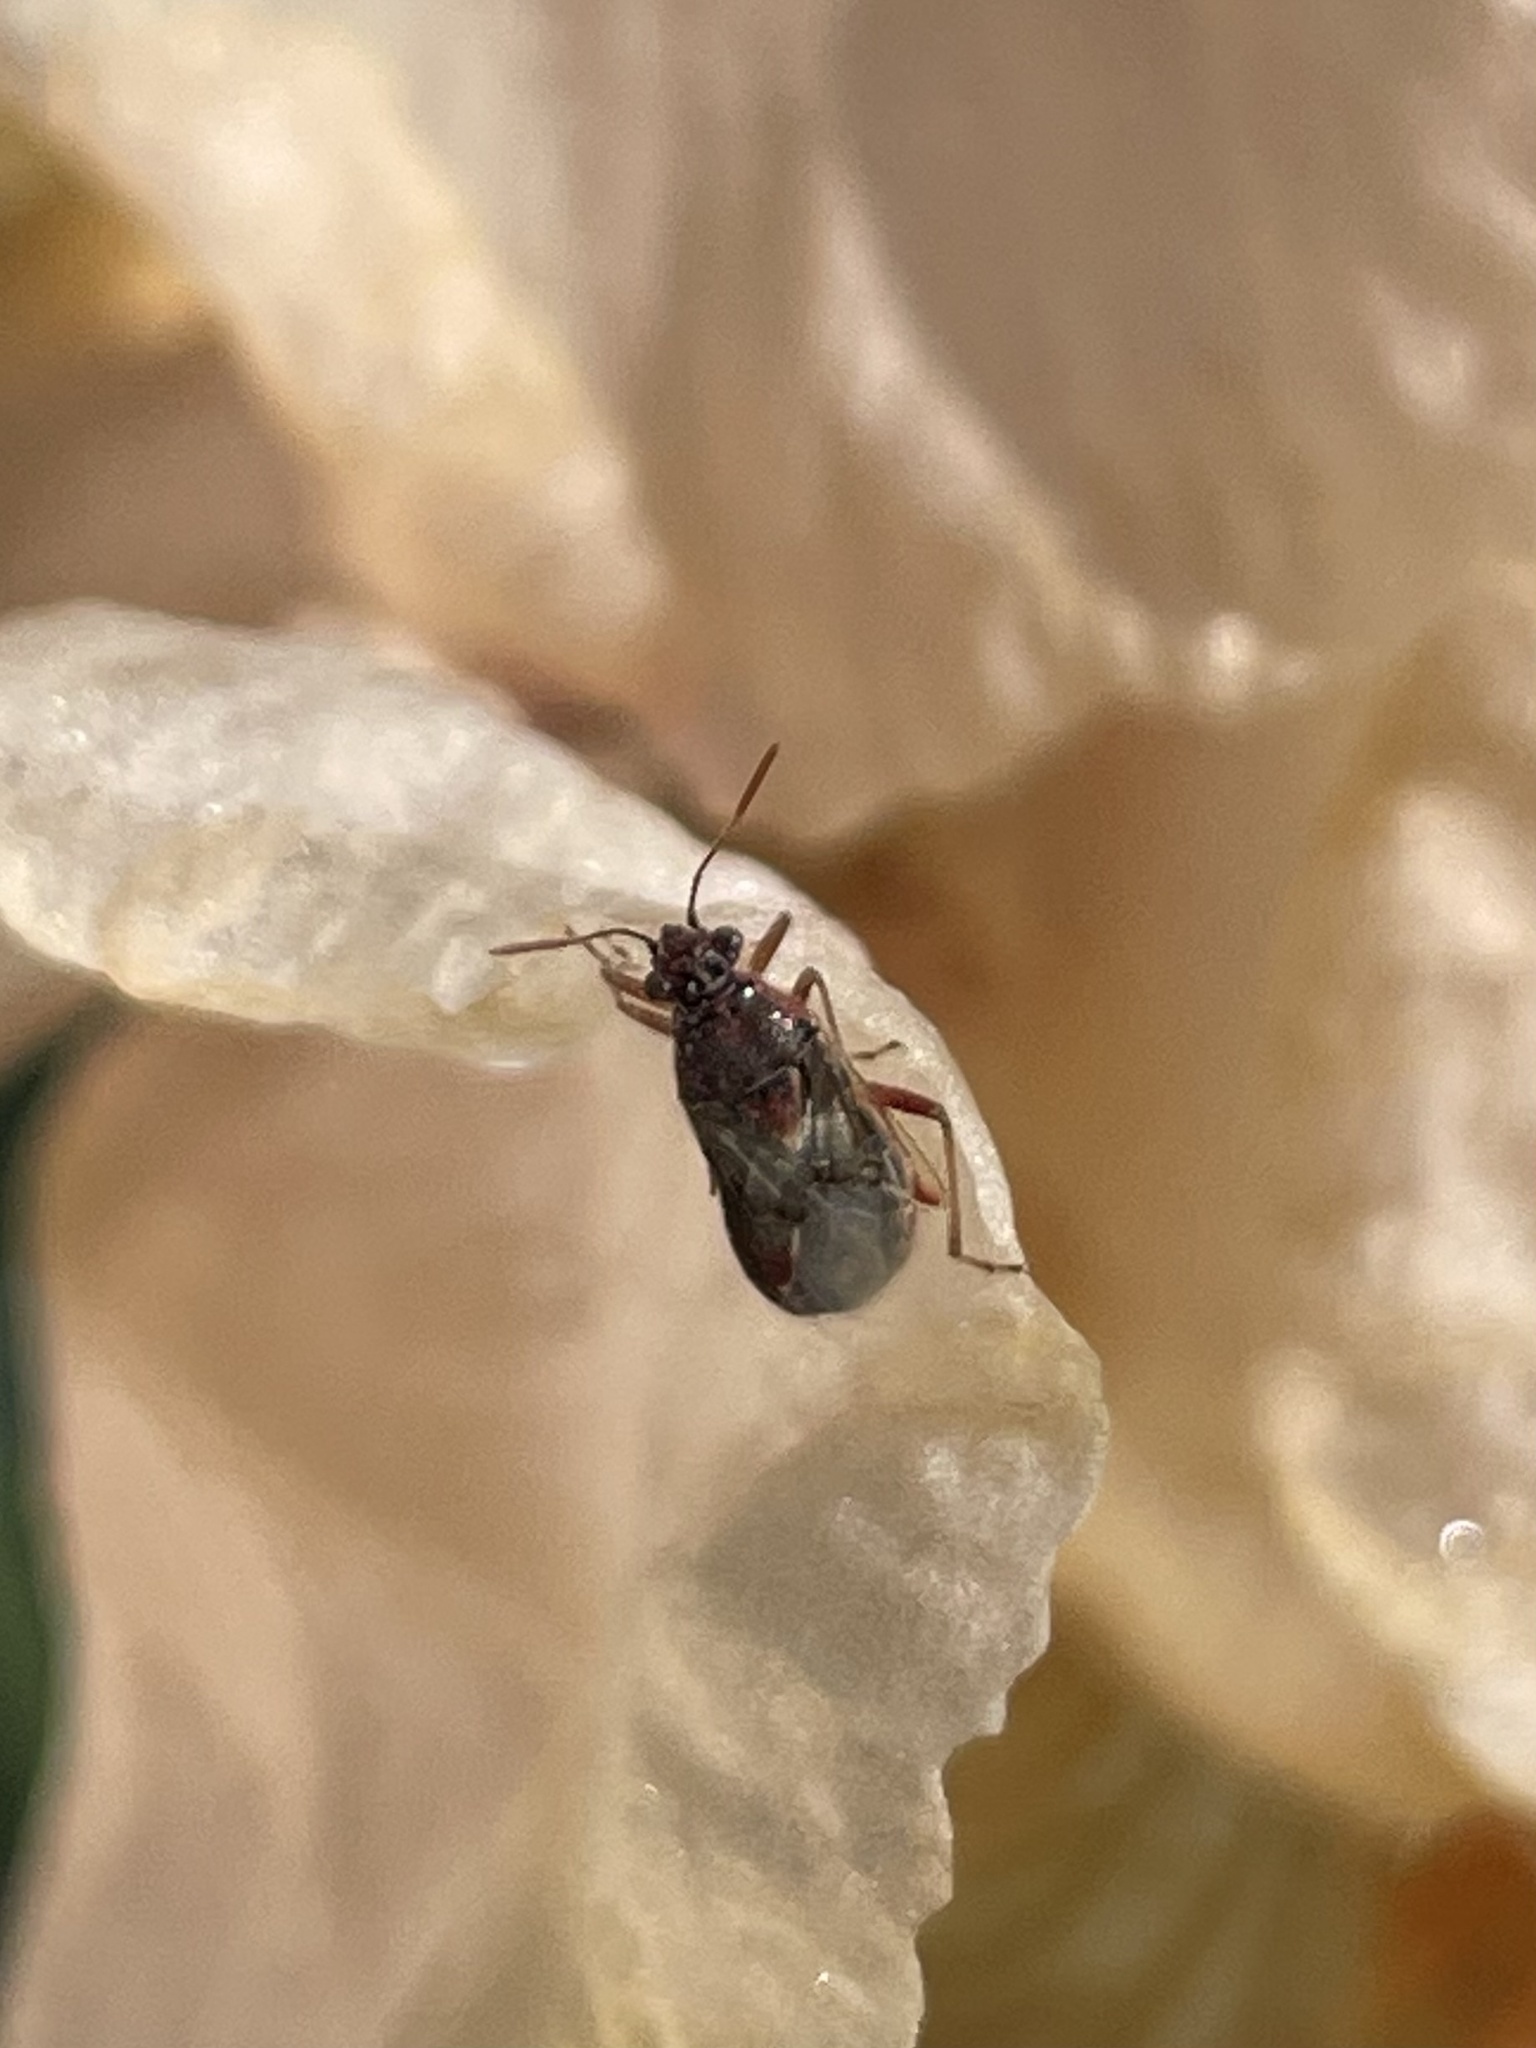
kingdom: Animalia
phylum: Arthropoda
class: Insecta
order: Hemiptera
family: Rhopalidae
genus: Liorhyssus
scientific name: Liorhyssus hyalinus
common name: Scentless plant bug
